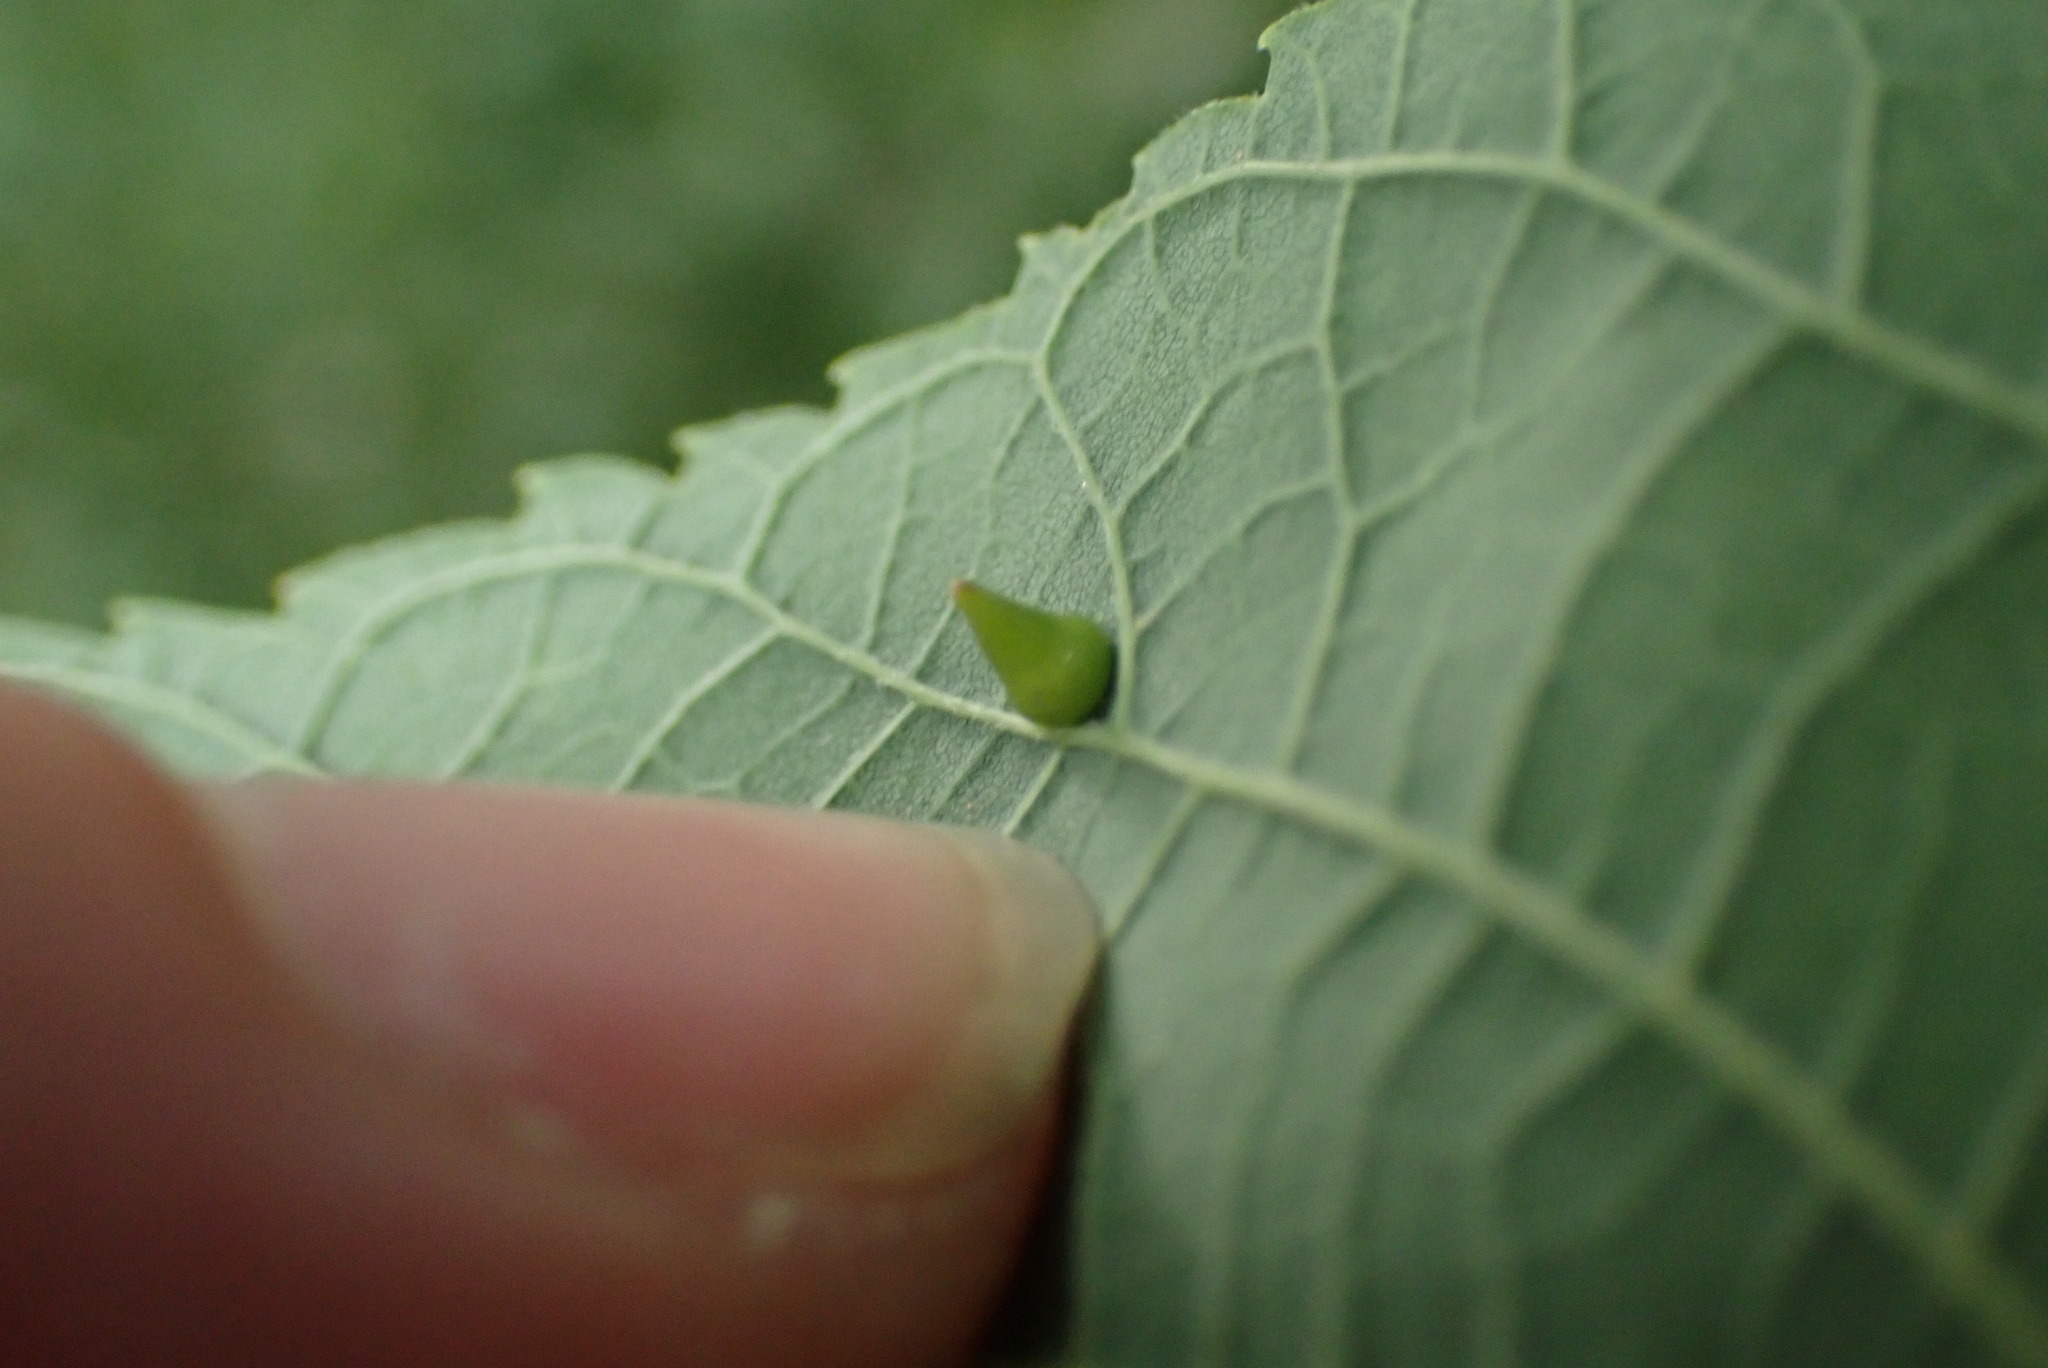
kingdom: Animalia
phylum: Arthropoda
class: Insecta
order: Diptera
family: Cecidomyiidae
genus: Celticecis
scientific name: Celticecis spiniformis
